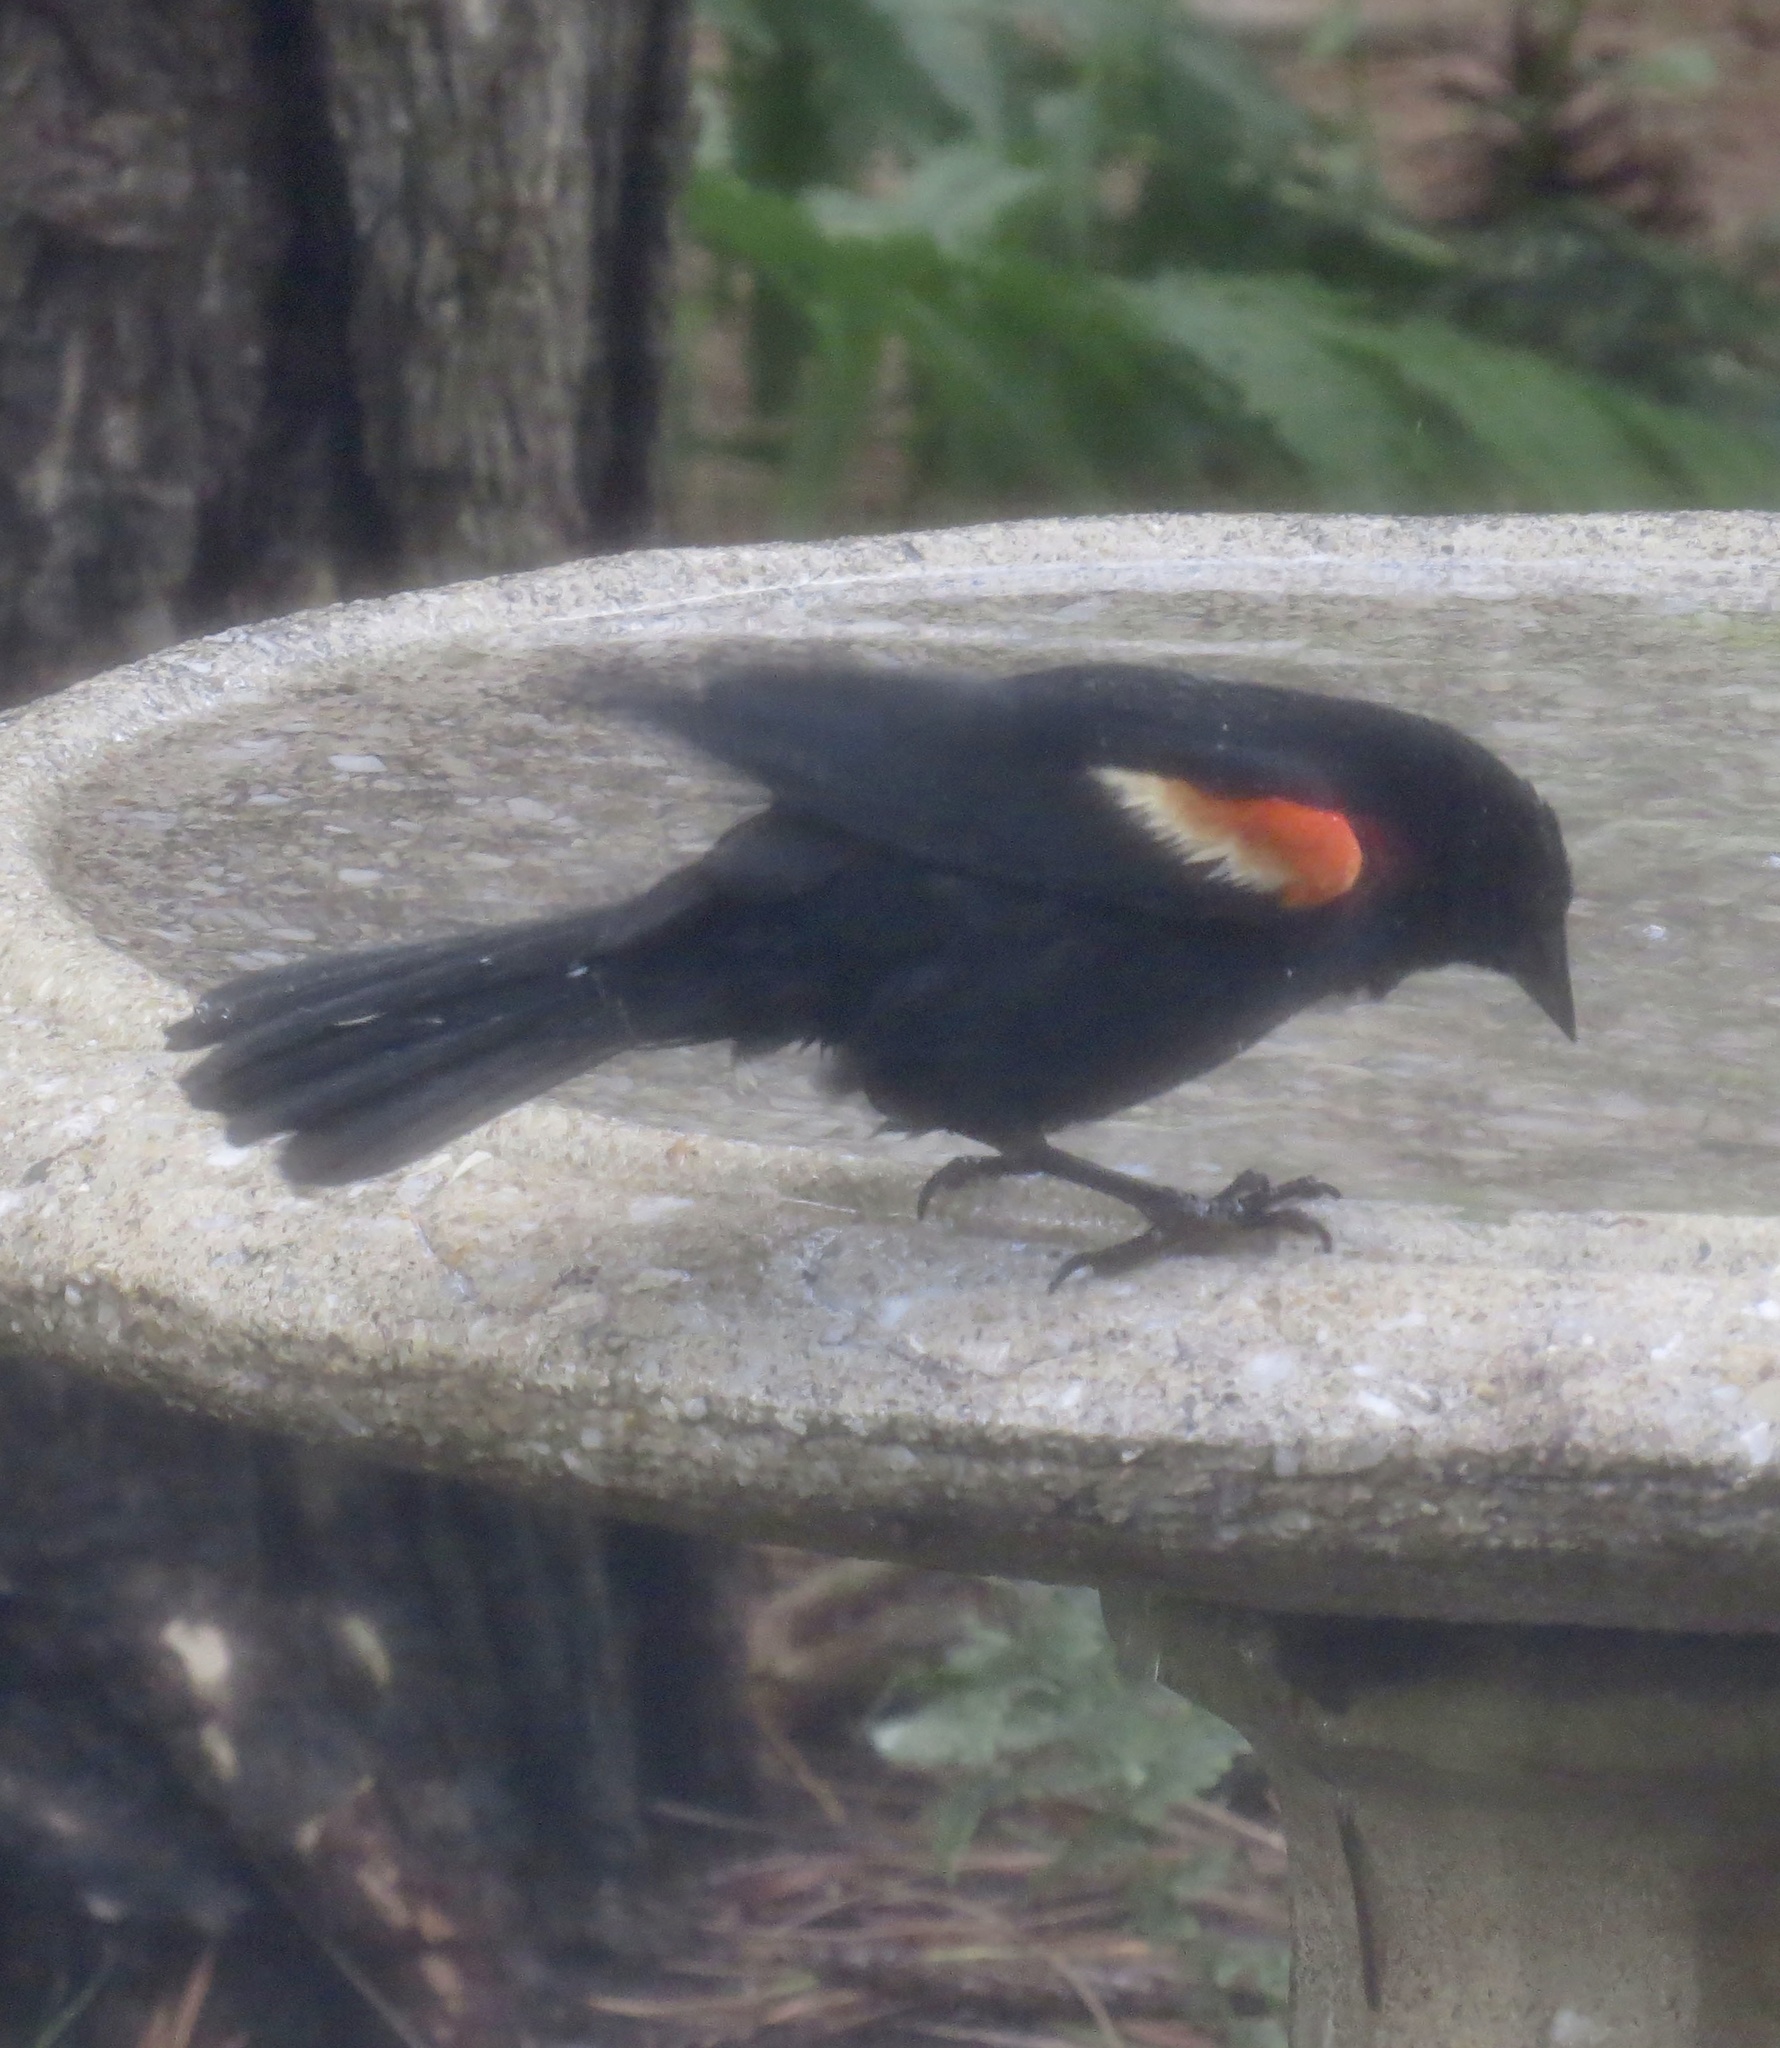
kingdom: Animalia
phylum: Chordata
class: Aves
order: Passeriformes
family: Icteridae
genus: Agelaius
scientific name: Agelaius phoeniceus
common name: Red-winged blackbird
